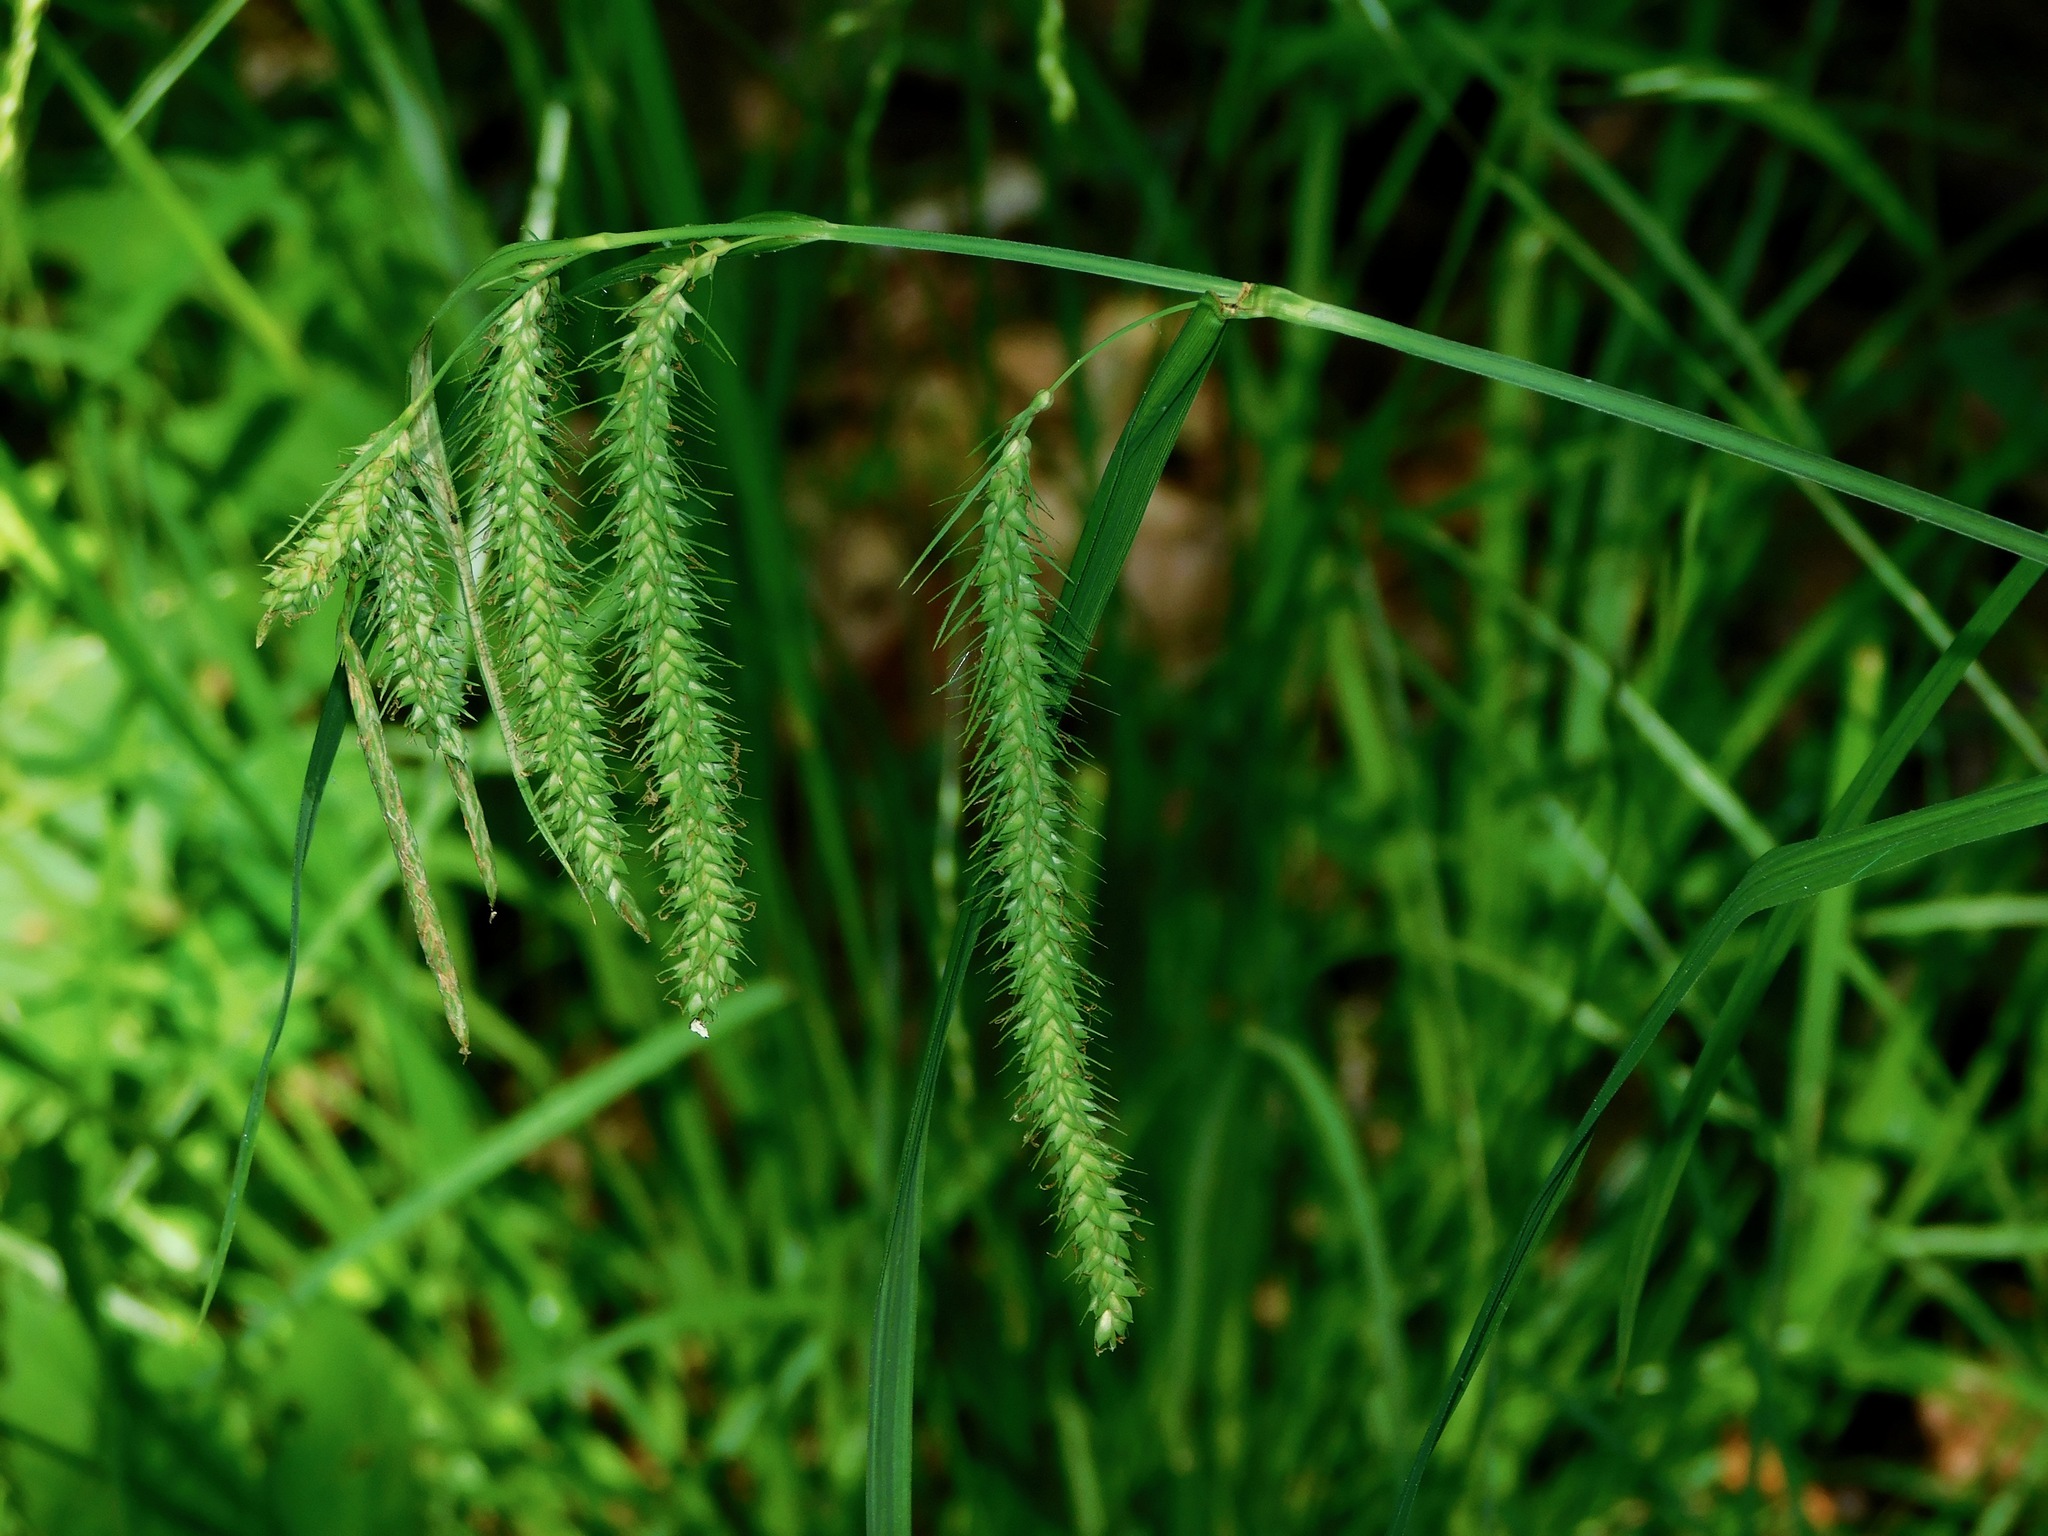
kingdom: Plantae
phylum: Tracheophyta
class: Liliopsida
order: Poales
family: Cyperaceae
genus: Carex
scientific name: Carex crinita
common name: Fringed sedge
